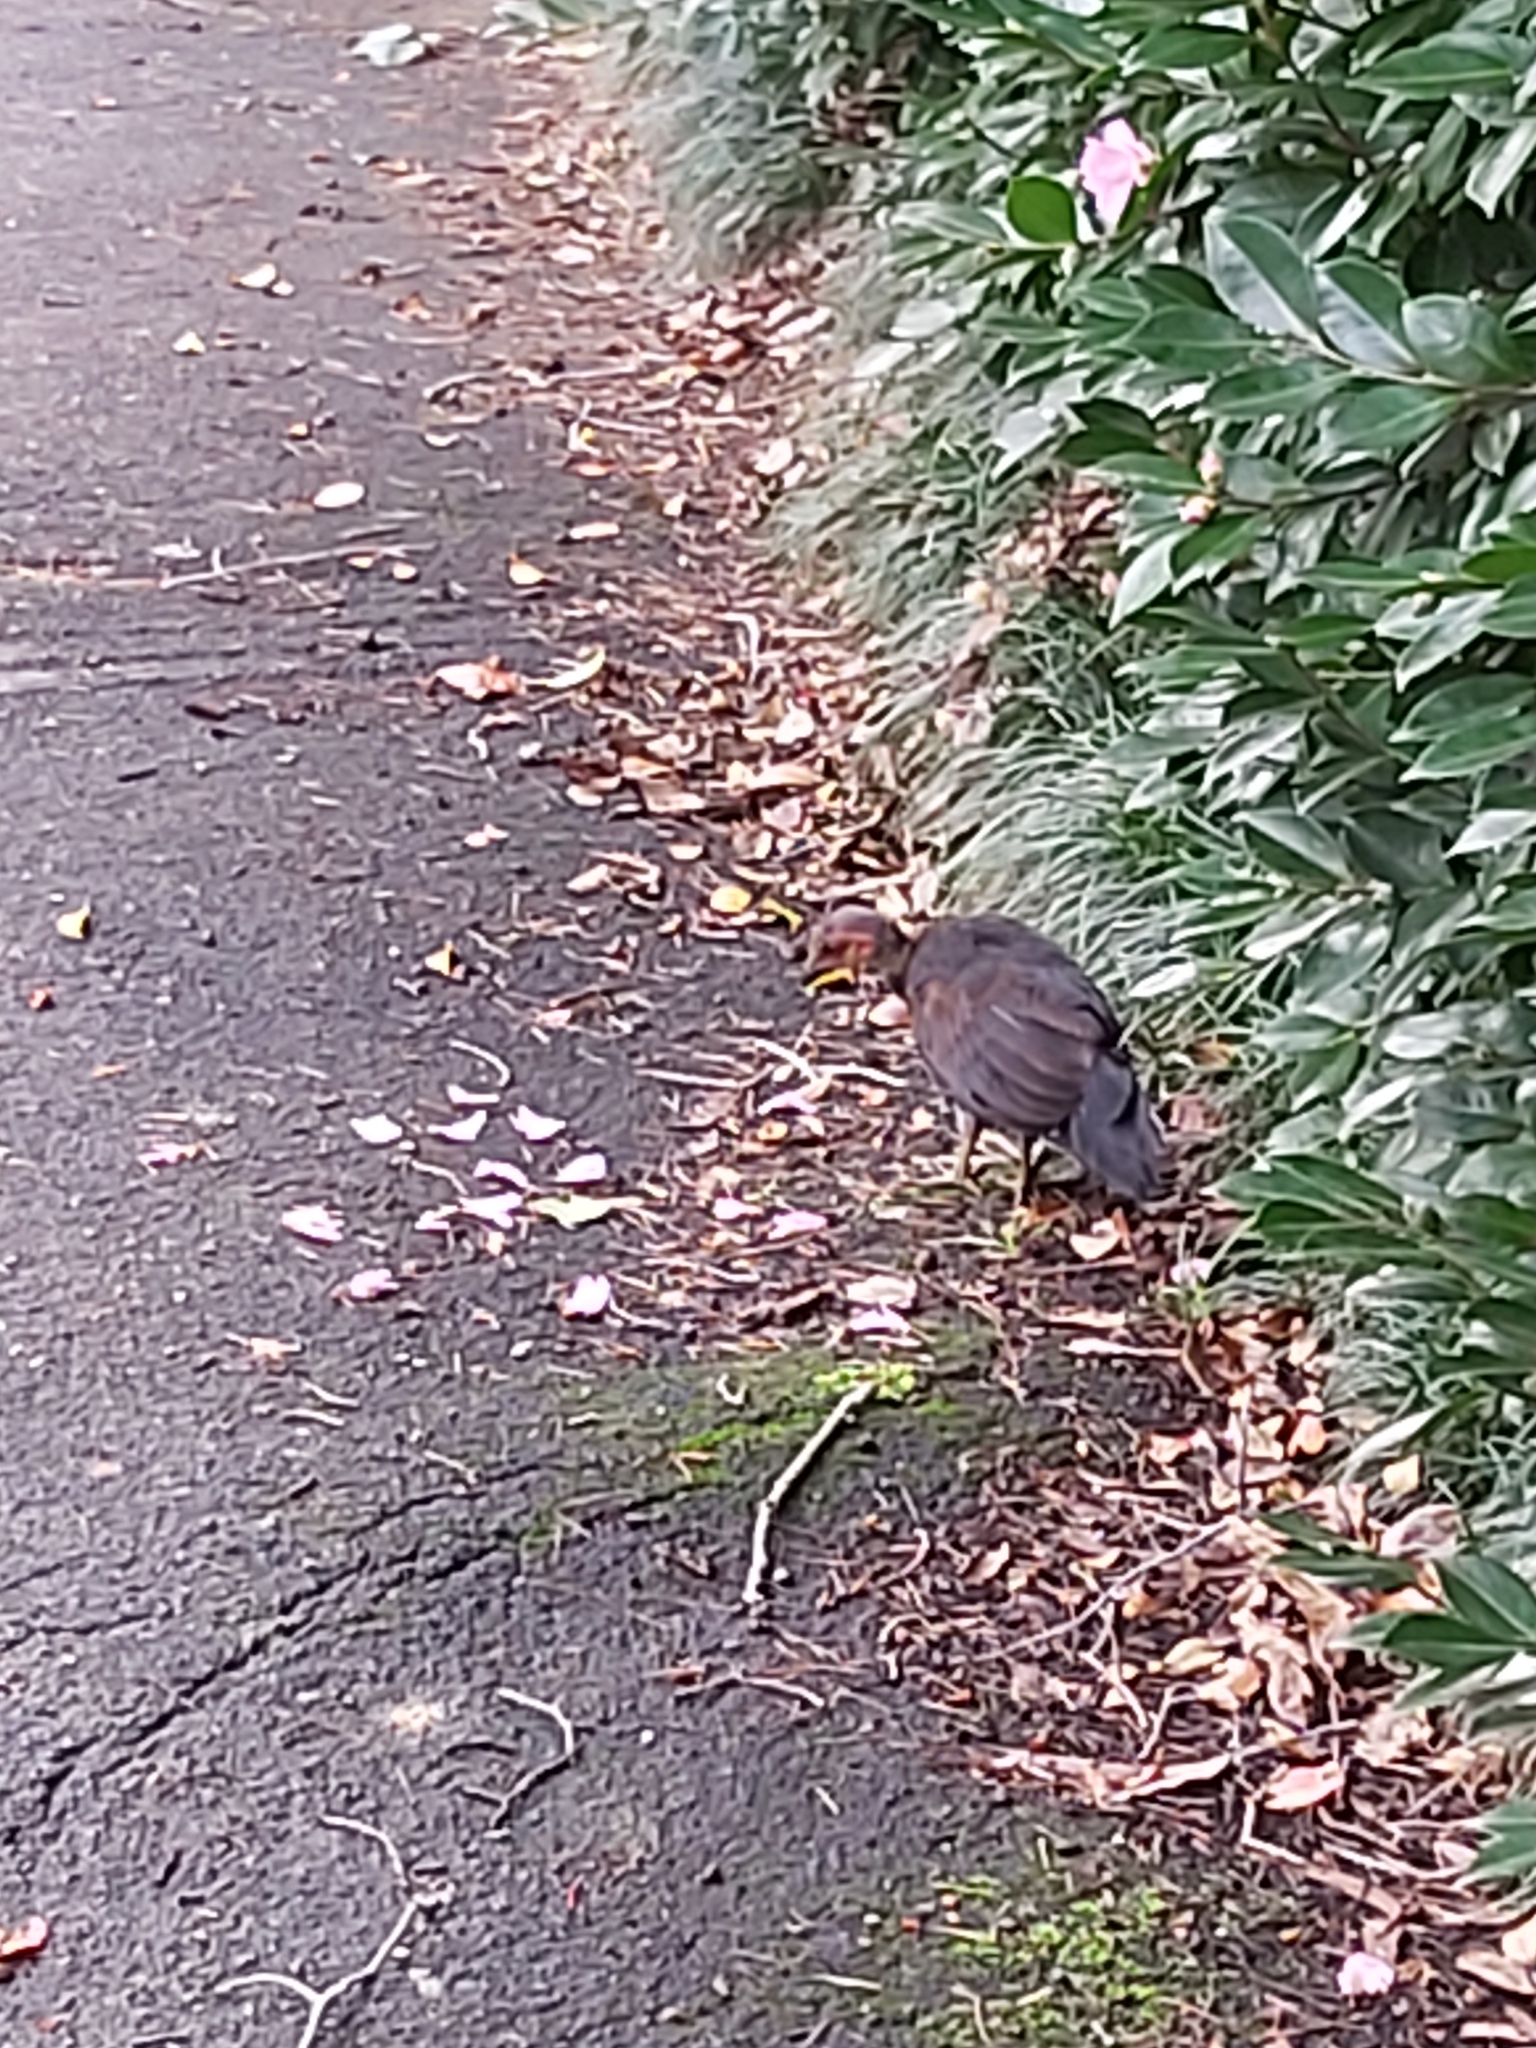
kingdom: Animalia
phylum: Chordata
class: Aves
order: Galliformes
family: Megapodiidae
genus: Alectura
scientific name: Alectura lathami
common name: Australian brushturkey
